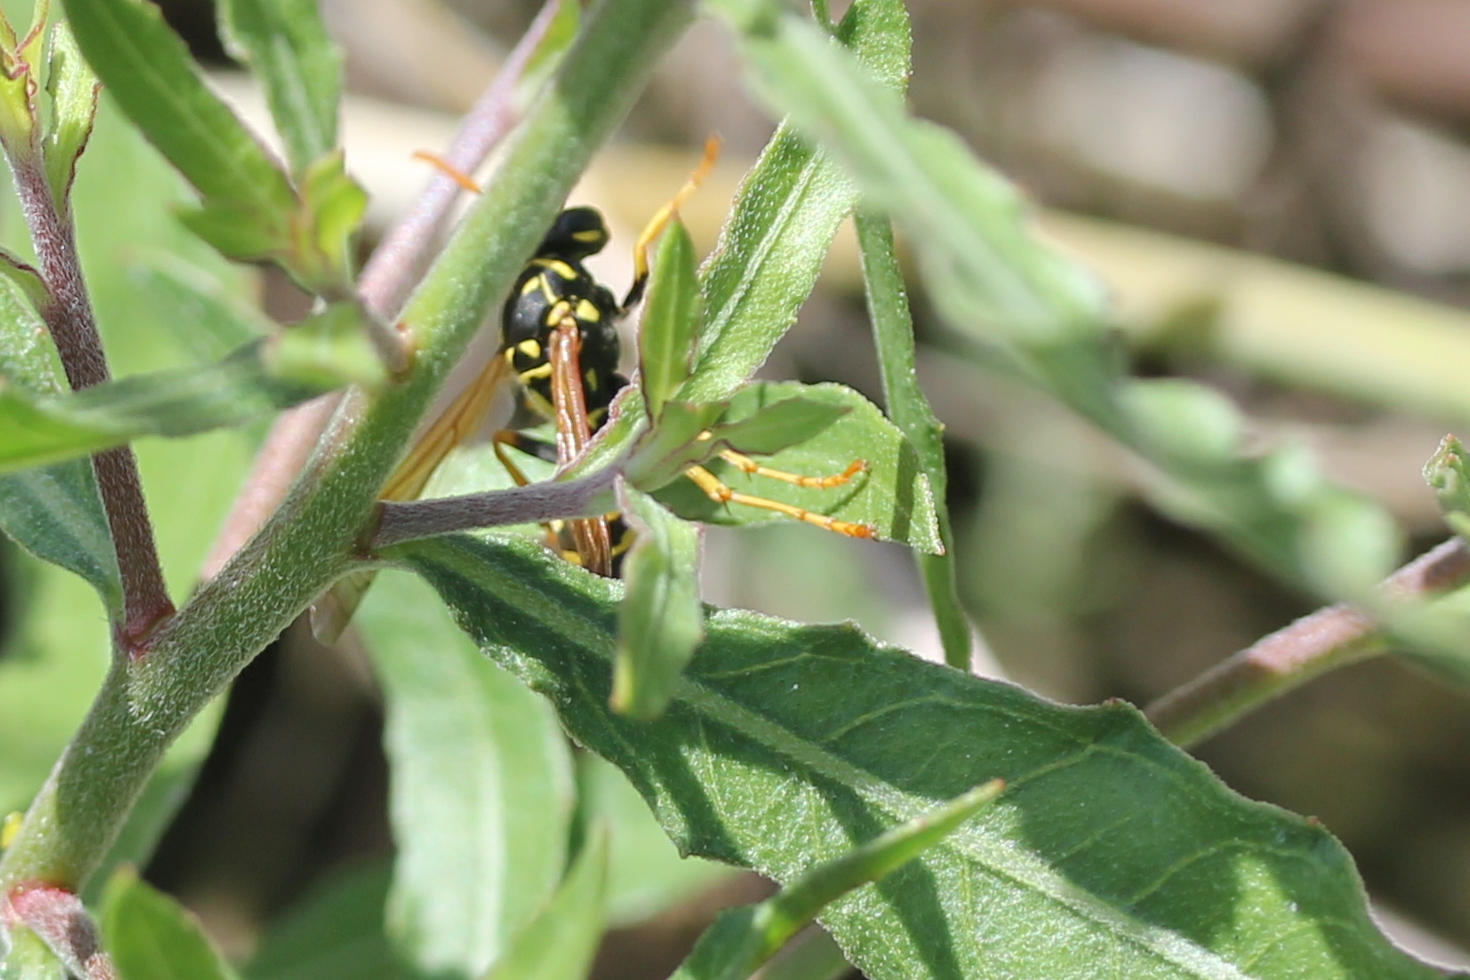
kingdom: Animalia
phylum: Arthropoda
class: Insecta
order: Hymenoptera
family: Eumenidae
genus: Polistes
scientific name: Polistes dominula
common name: Paper wasp
